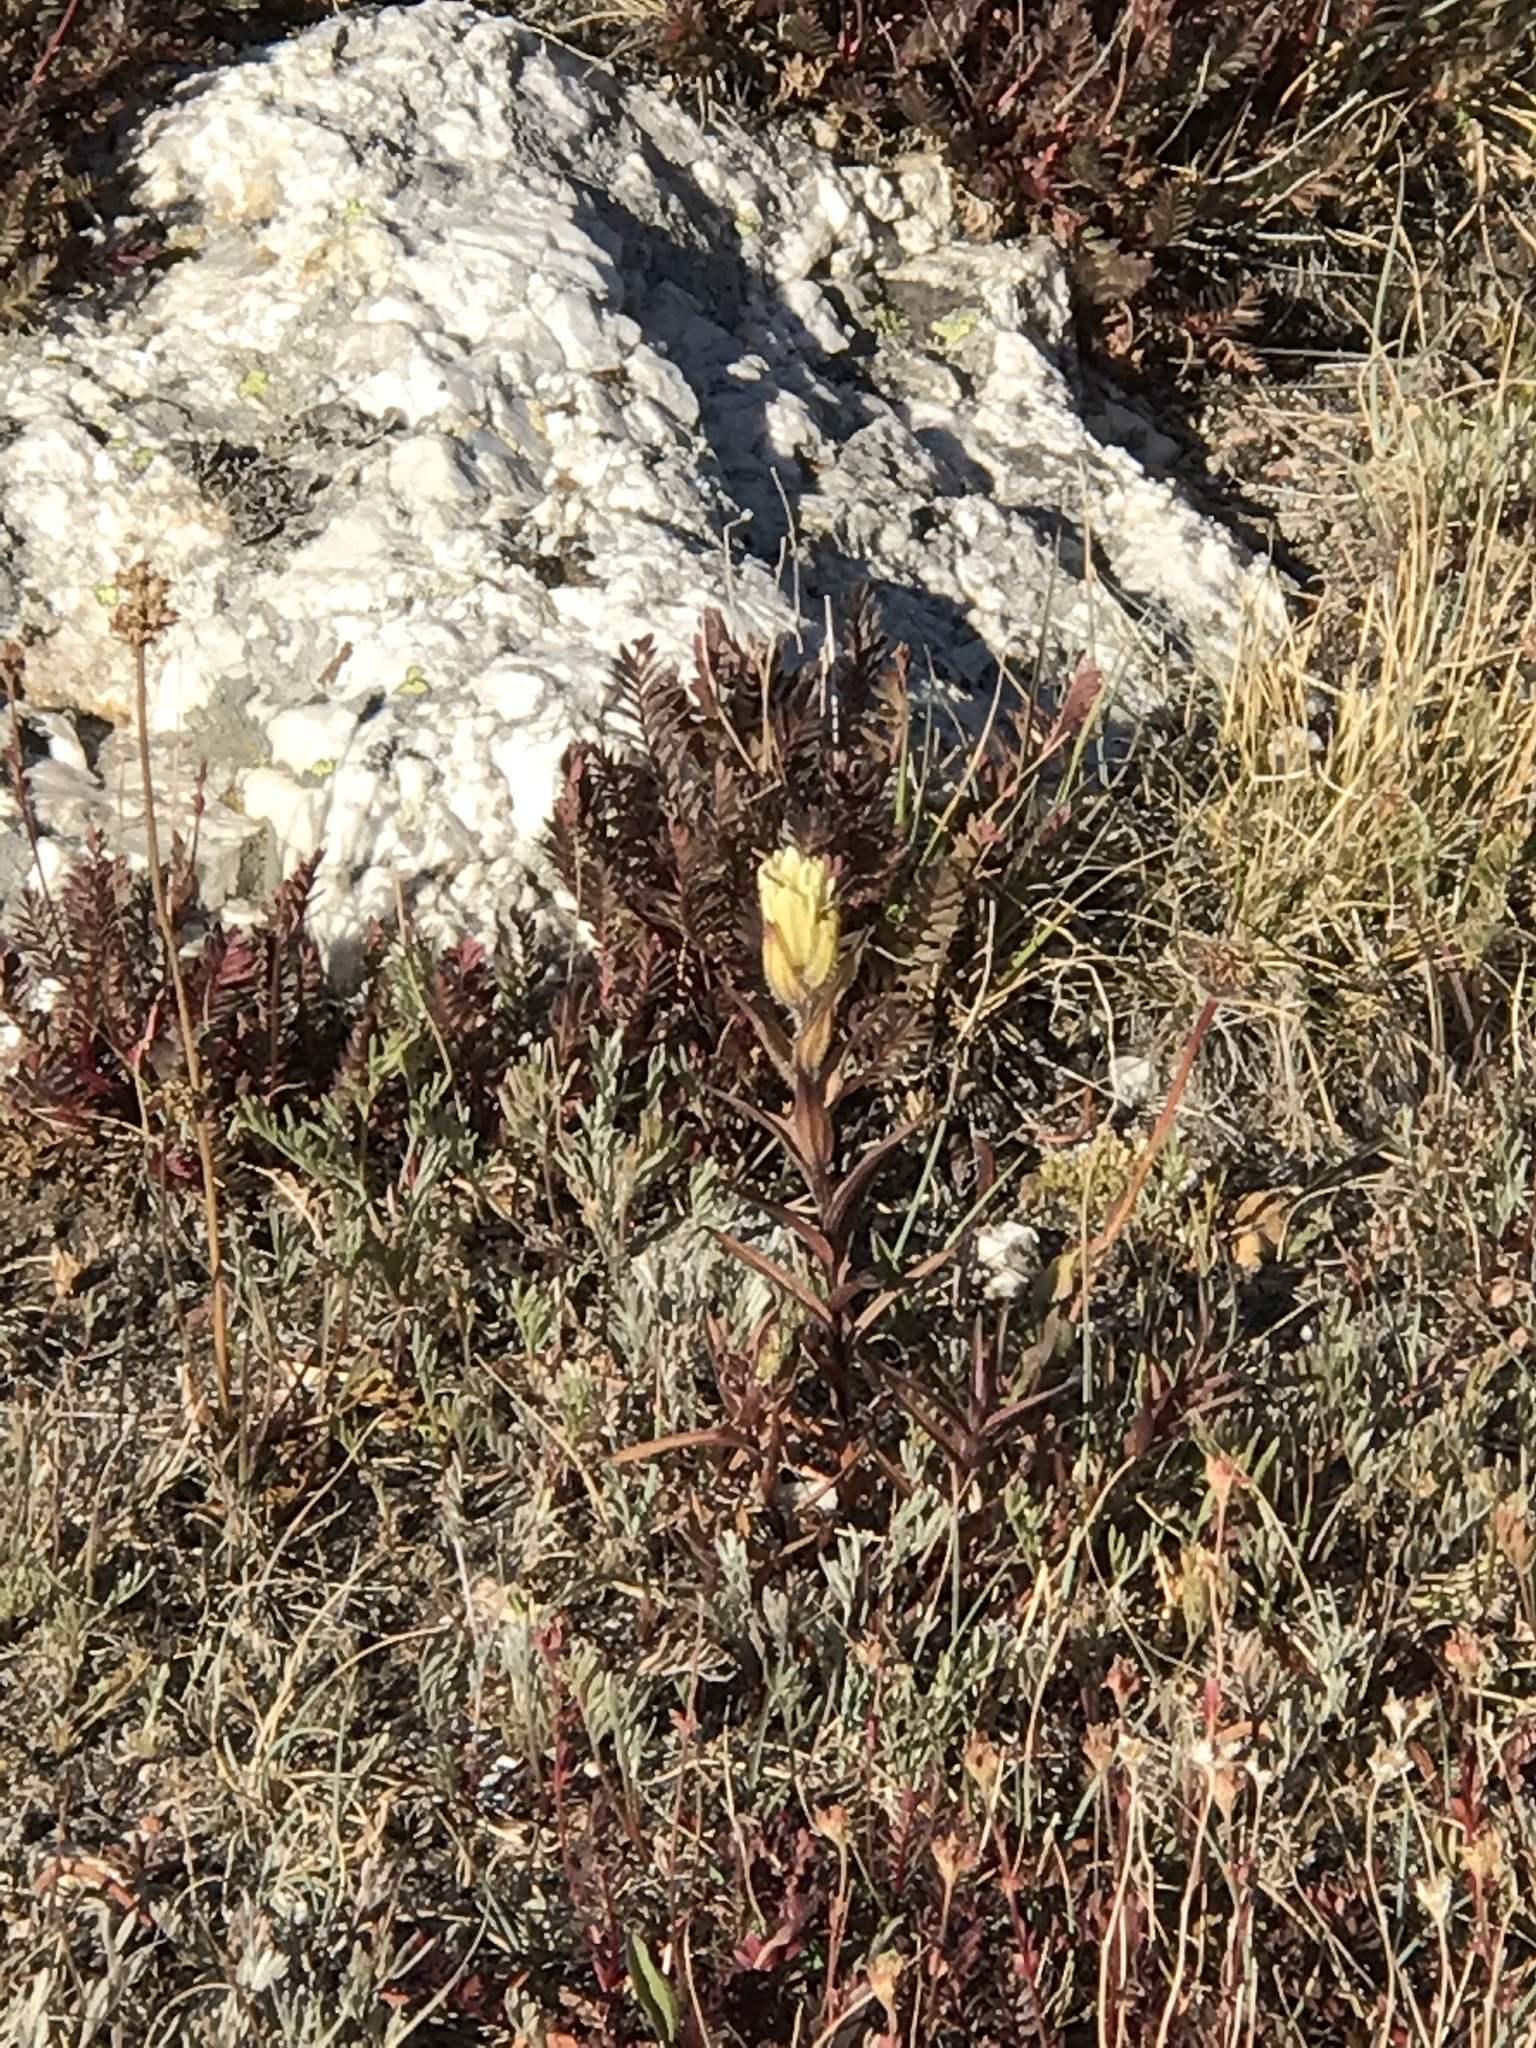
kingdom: Plantae
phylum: Tracheophyta
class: Magnoliopsida
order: Lamiales
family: Orobanchaceae
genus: Castilleja
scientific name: Castilleja occidentalis
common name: Western paintbrush
